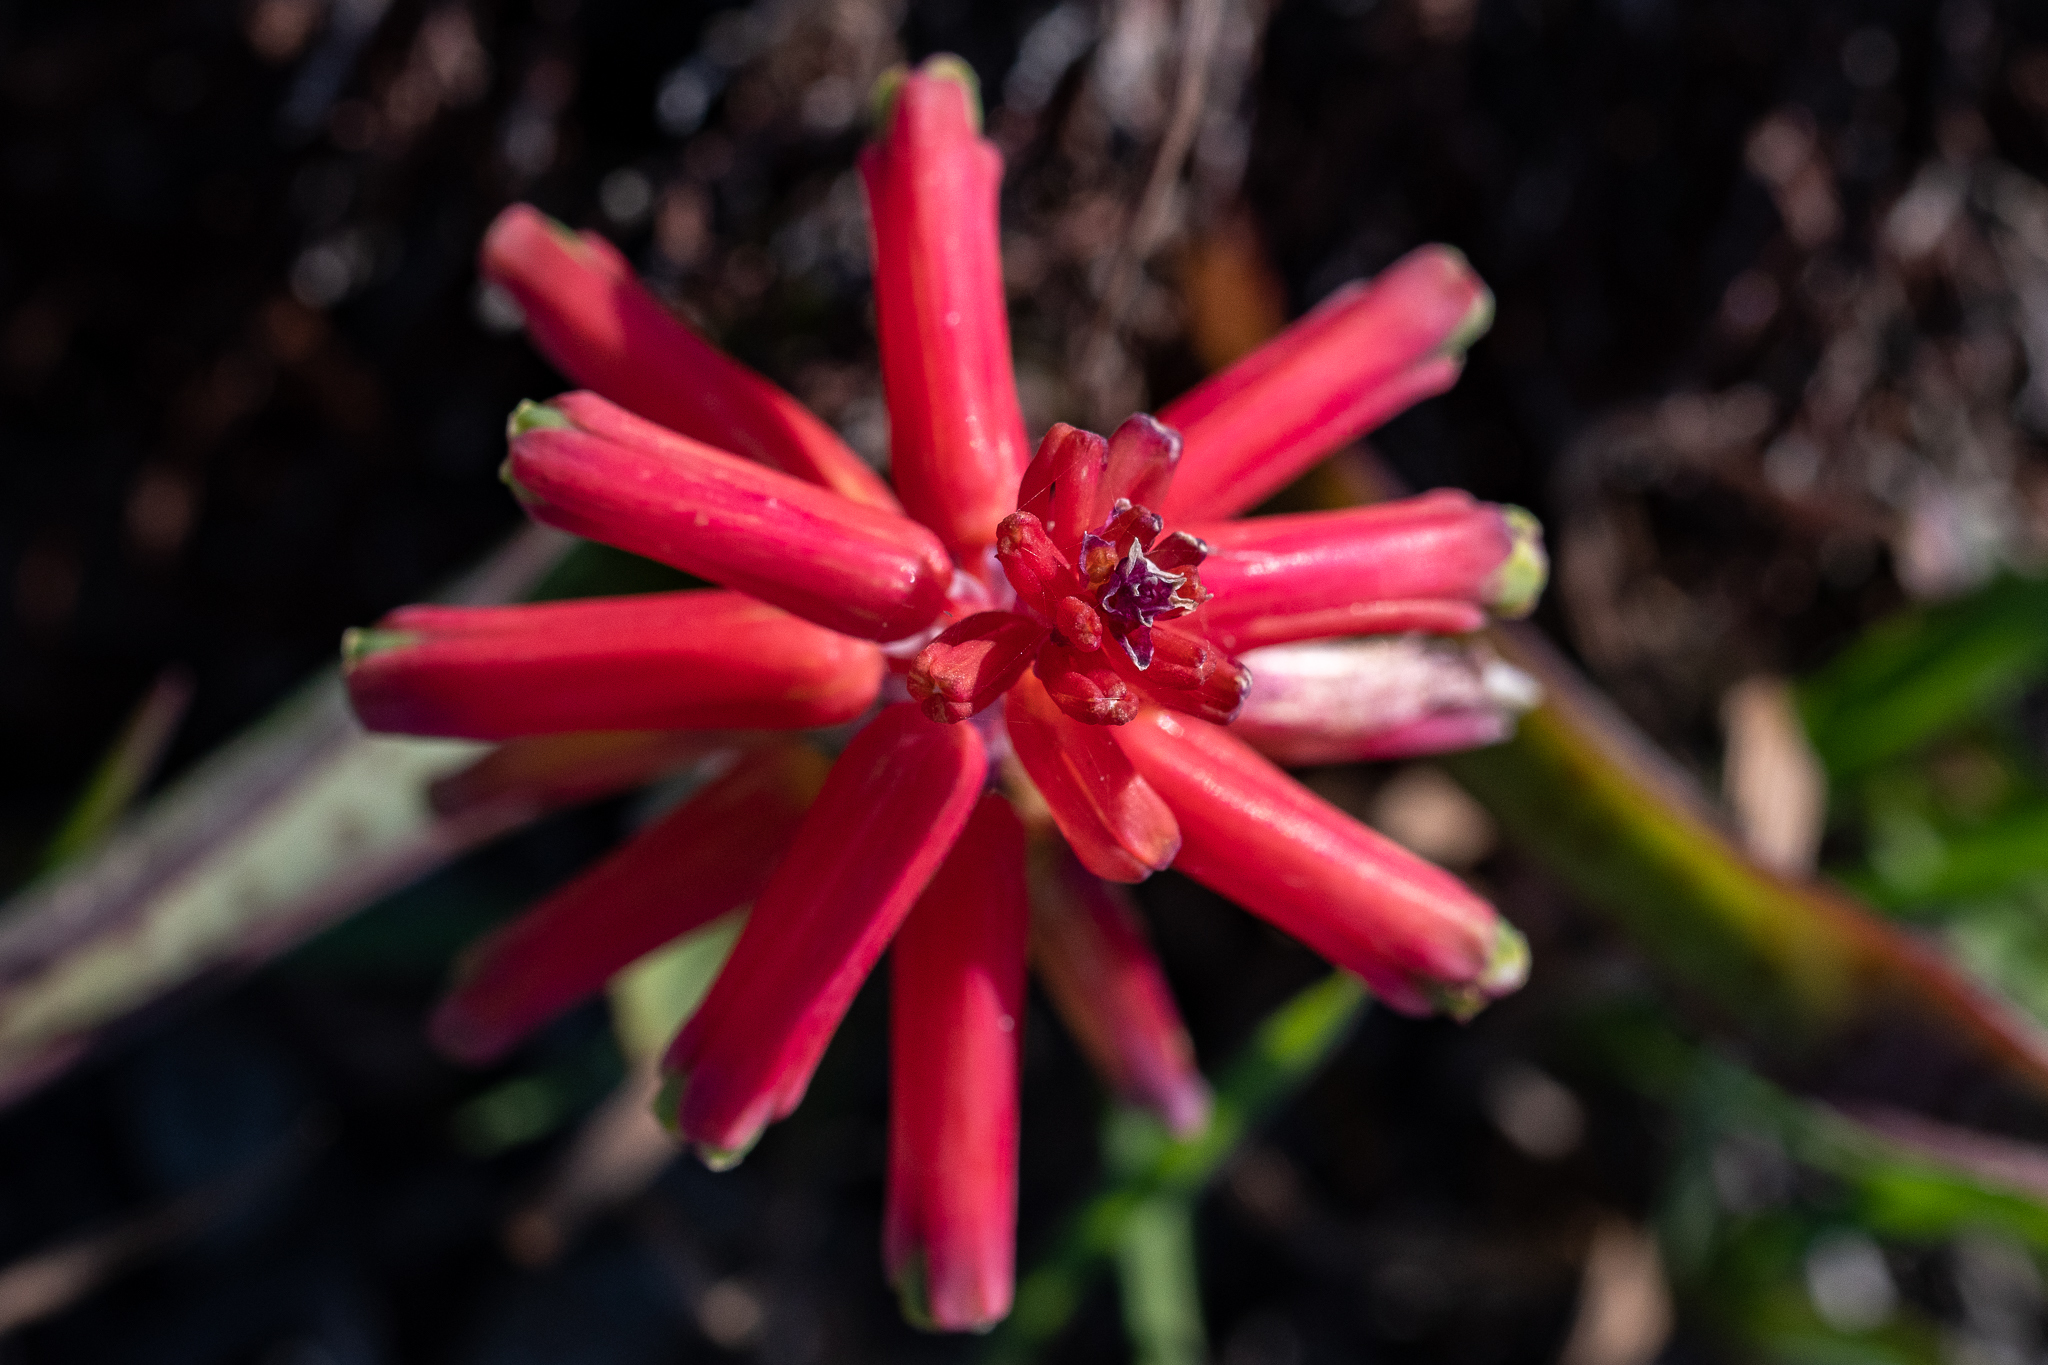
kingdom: Plantae
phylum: Tracheophyta
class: Liliopsida
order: Asparagales
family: Asparagaceae
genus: Lachenalia
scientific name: Lachenalia bulbifera
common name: Red lachenalia
